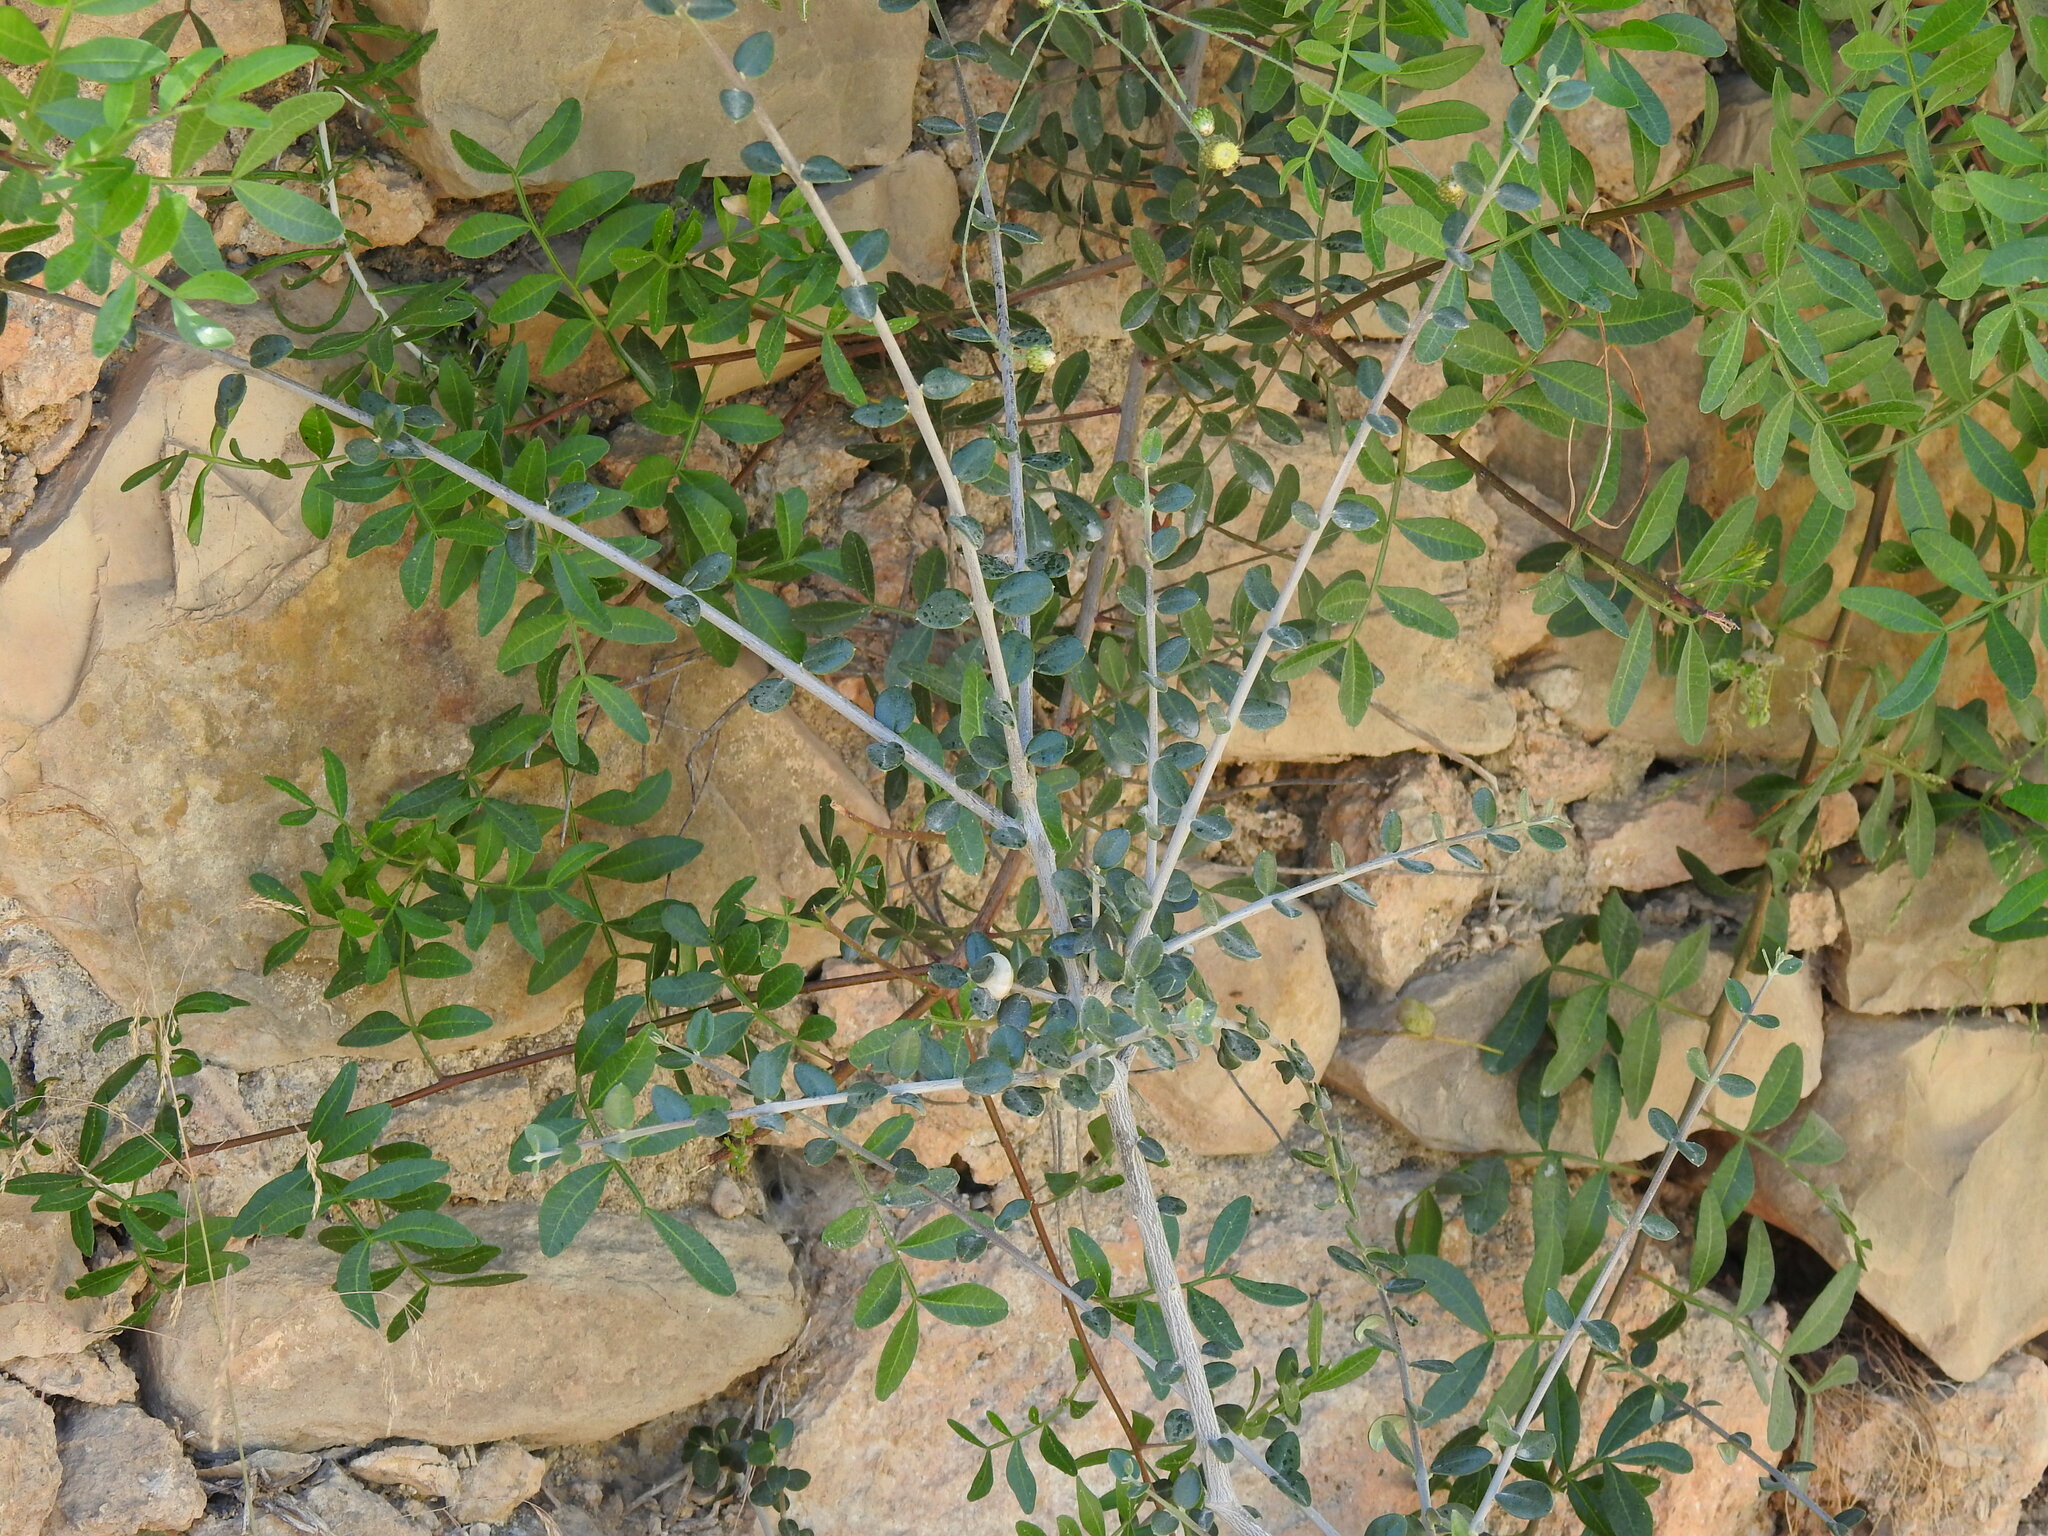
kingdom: Plantae
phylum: Tracheophyta
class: Magnoliopsida
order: Lamiales
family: Oleaceae
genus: Olea
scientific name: Olea europaea
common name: Olive
